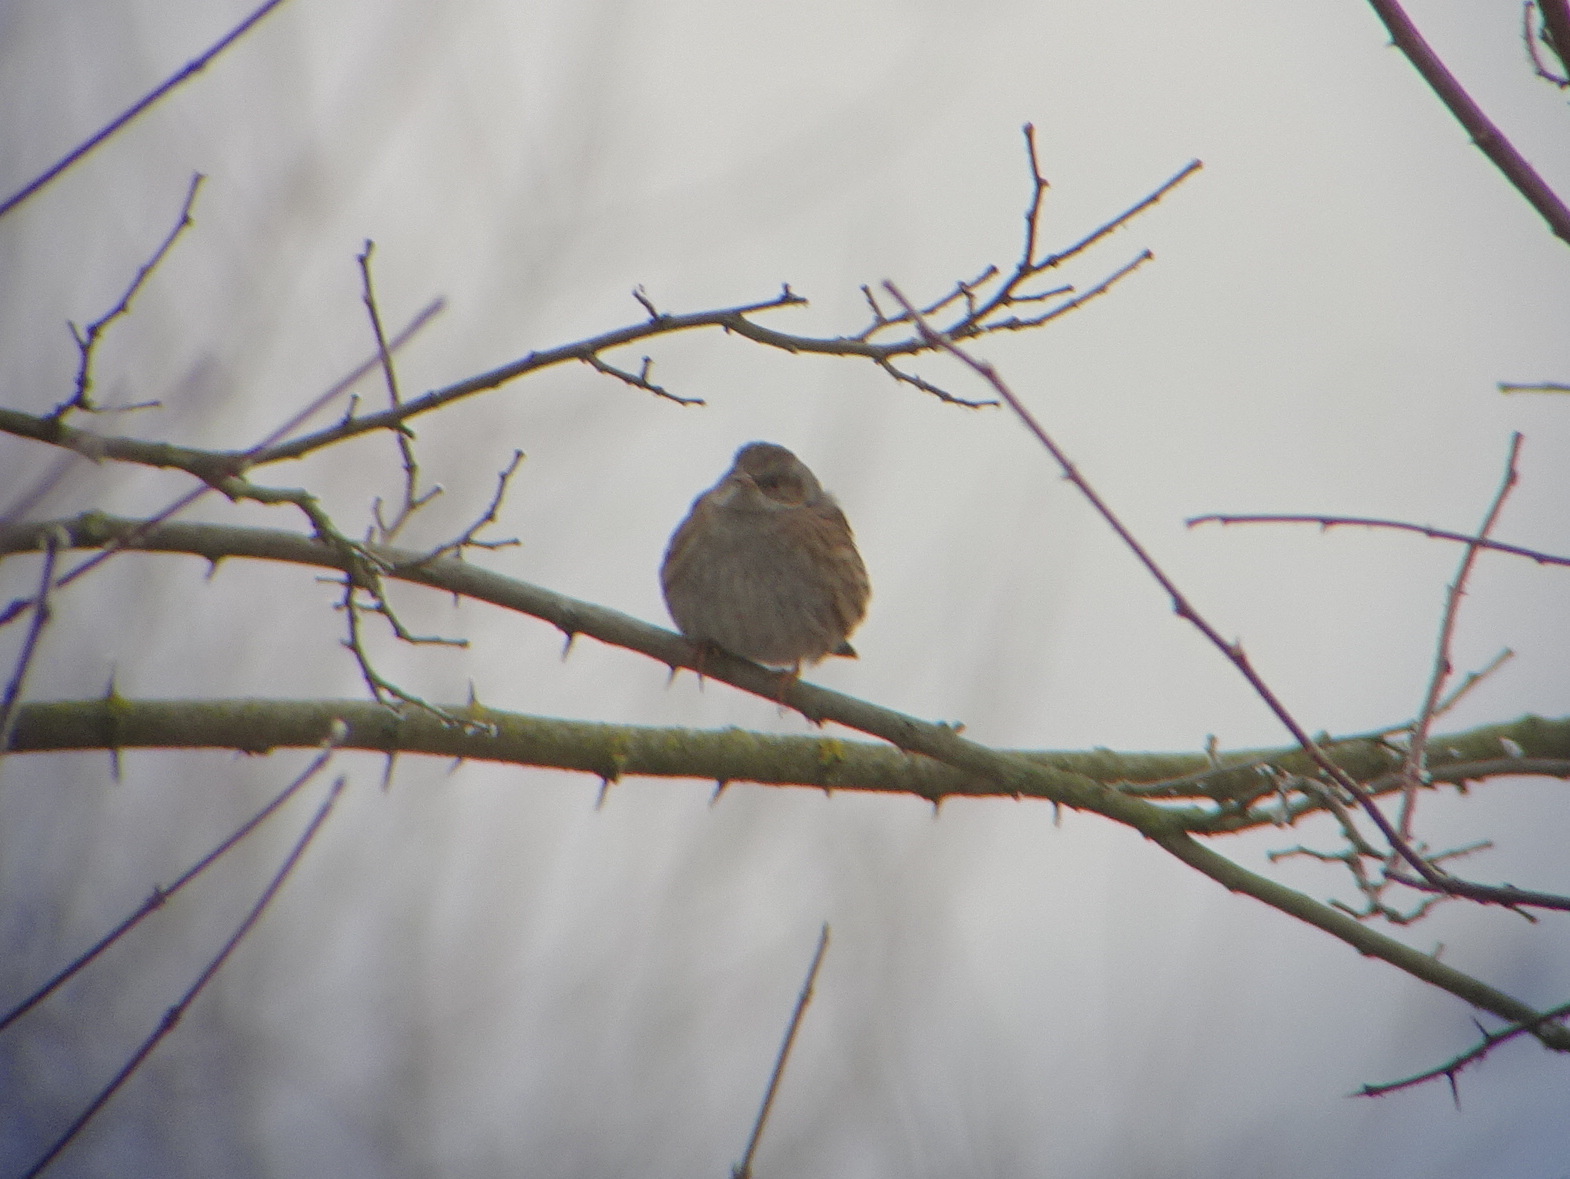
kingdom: Animalia
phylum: Chordata
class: Aves
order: Passeriformes
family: Prunellidae
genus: Prunella
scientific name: Prunella modularis
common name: Dunnock
